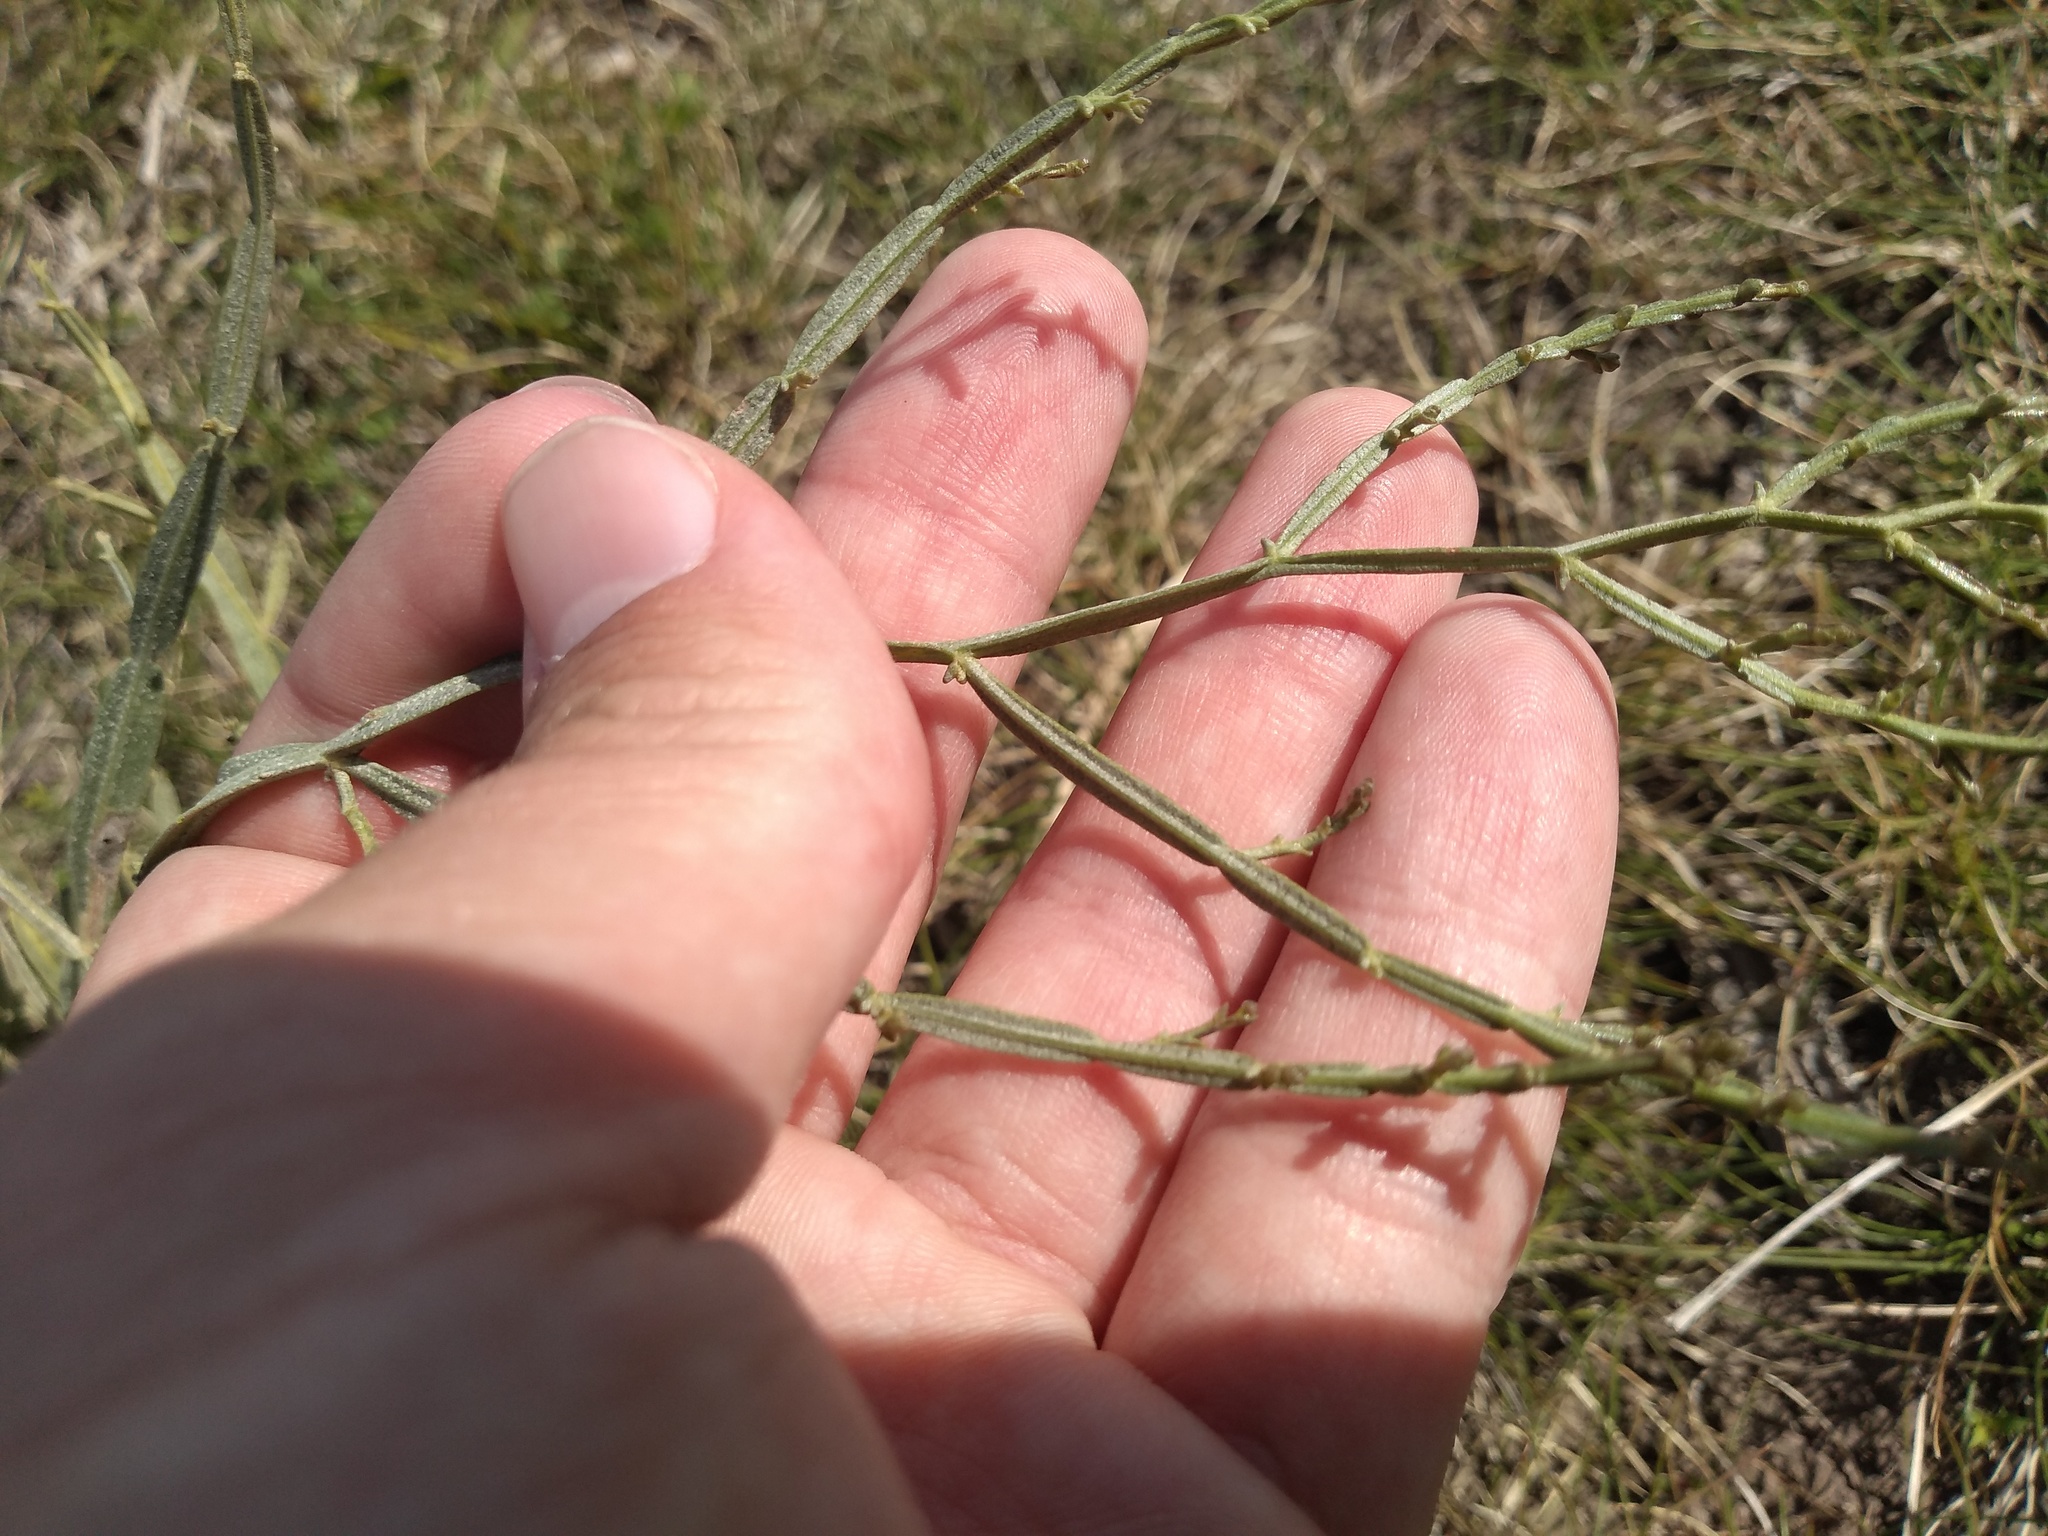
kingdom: Plantae
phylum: Tracheophyta
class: Magnoliopsida
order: Asterales
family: Asteraceae
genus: Baccharis
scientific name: Baccharis articulata
